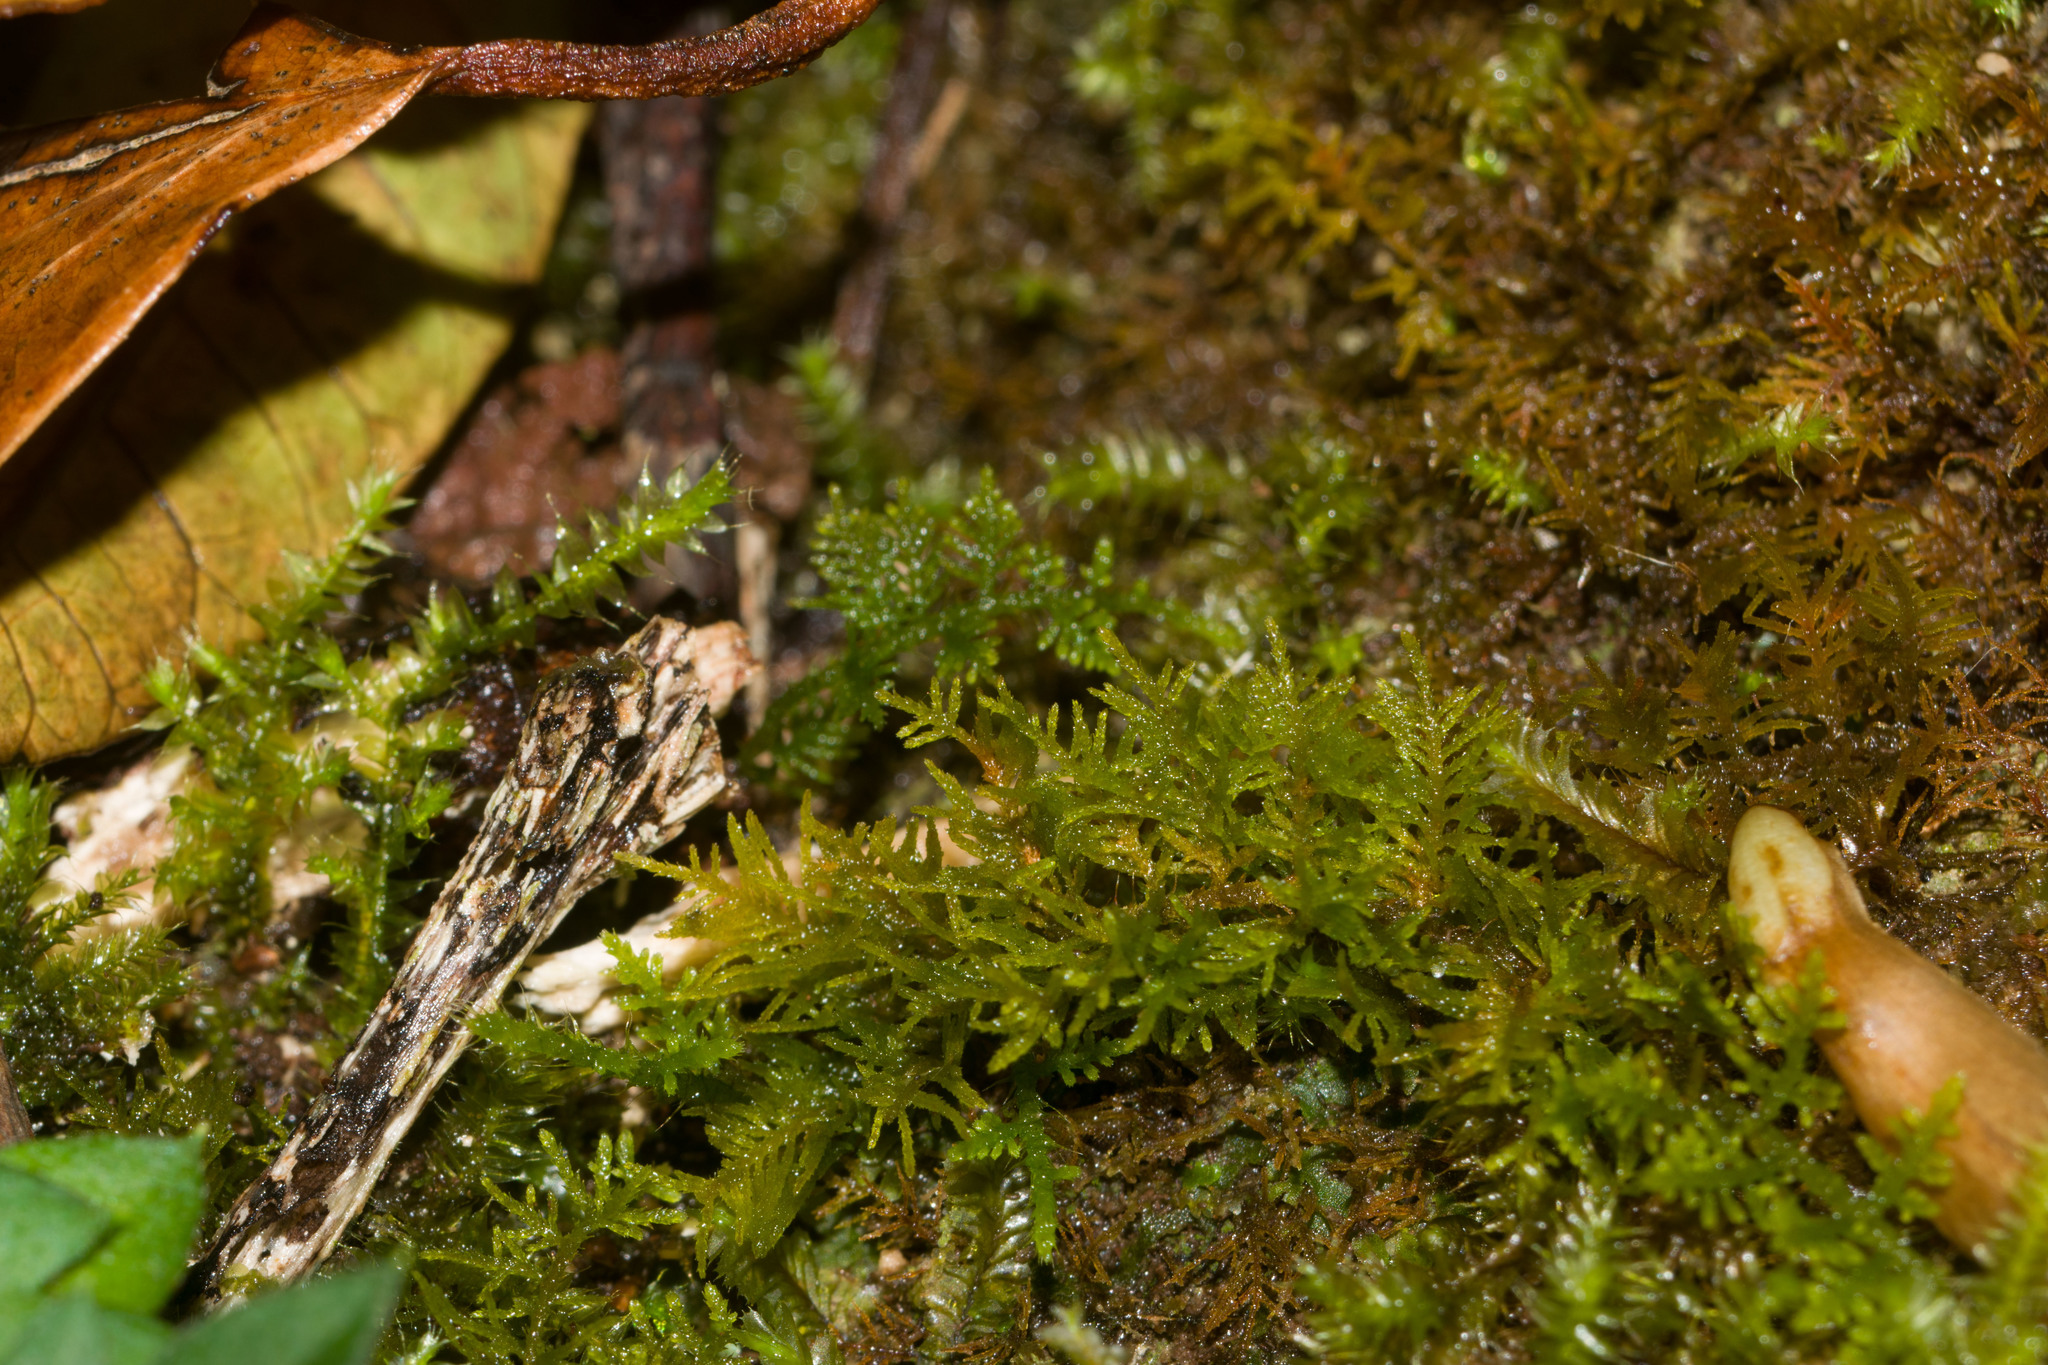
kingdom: Plantae
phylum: Bryophyta
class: Bryopsida
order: Hypnales
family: Thuidiaceae
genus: Thuidium
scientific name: Thuidium cymbifolium
